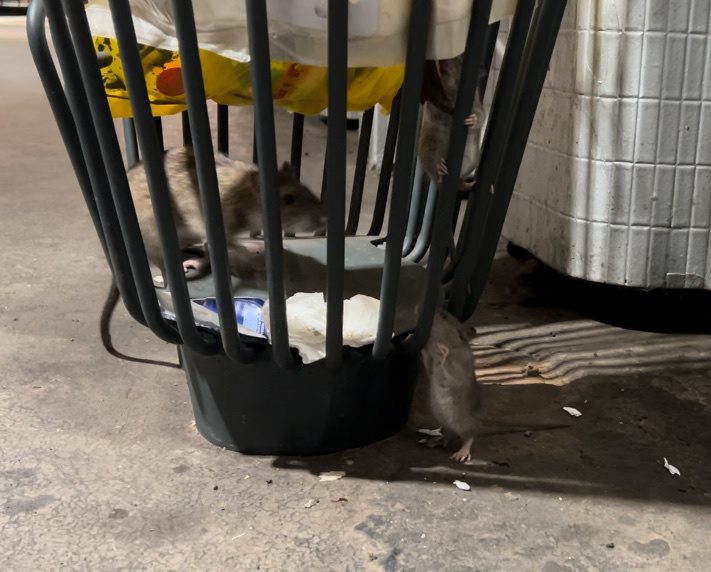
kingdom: Animalia
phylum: Chordata
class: Mammalia
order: Rodentia
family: Muridae
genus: Rattus
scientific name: Rattus norvegicus
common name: Brown rat
